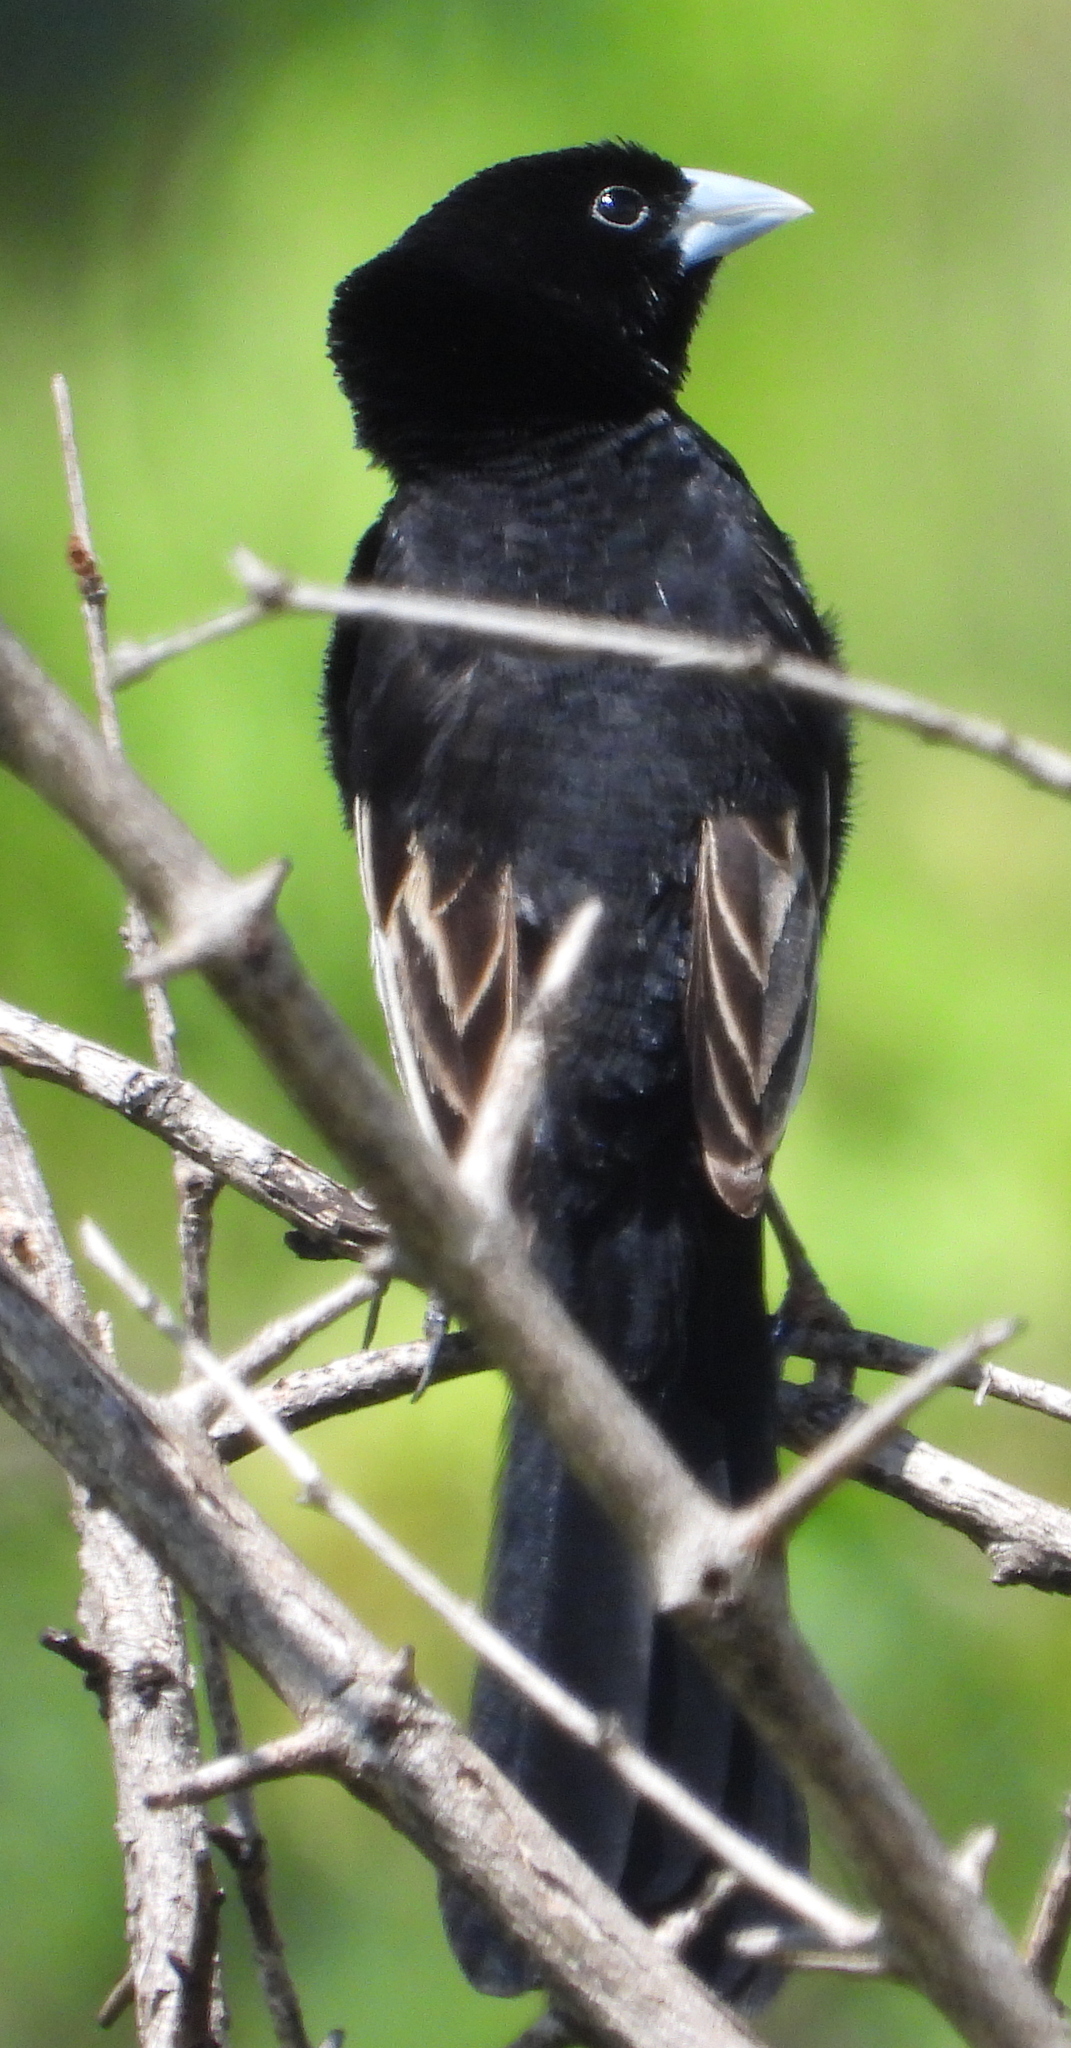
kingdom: Animalia
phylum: Chordata
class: Aves
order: Passeriformes
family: Ploceidae
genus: Euplectes
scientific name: Euplectes albonotatus
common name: White-winged widowbird
